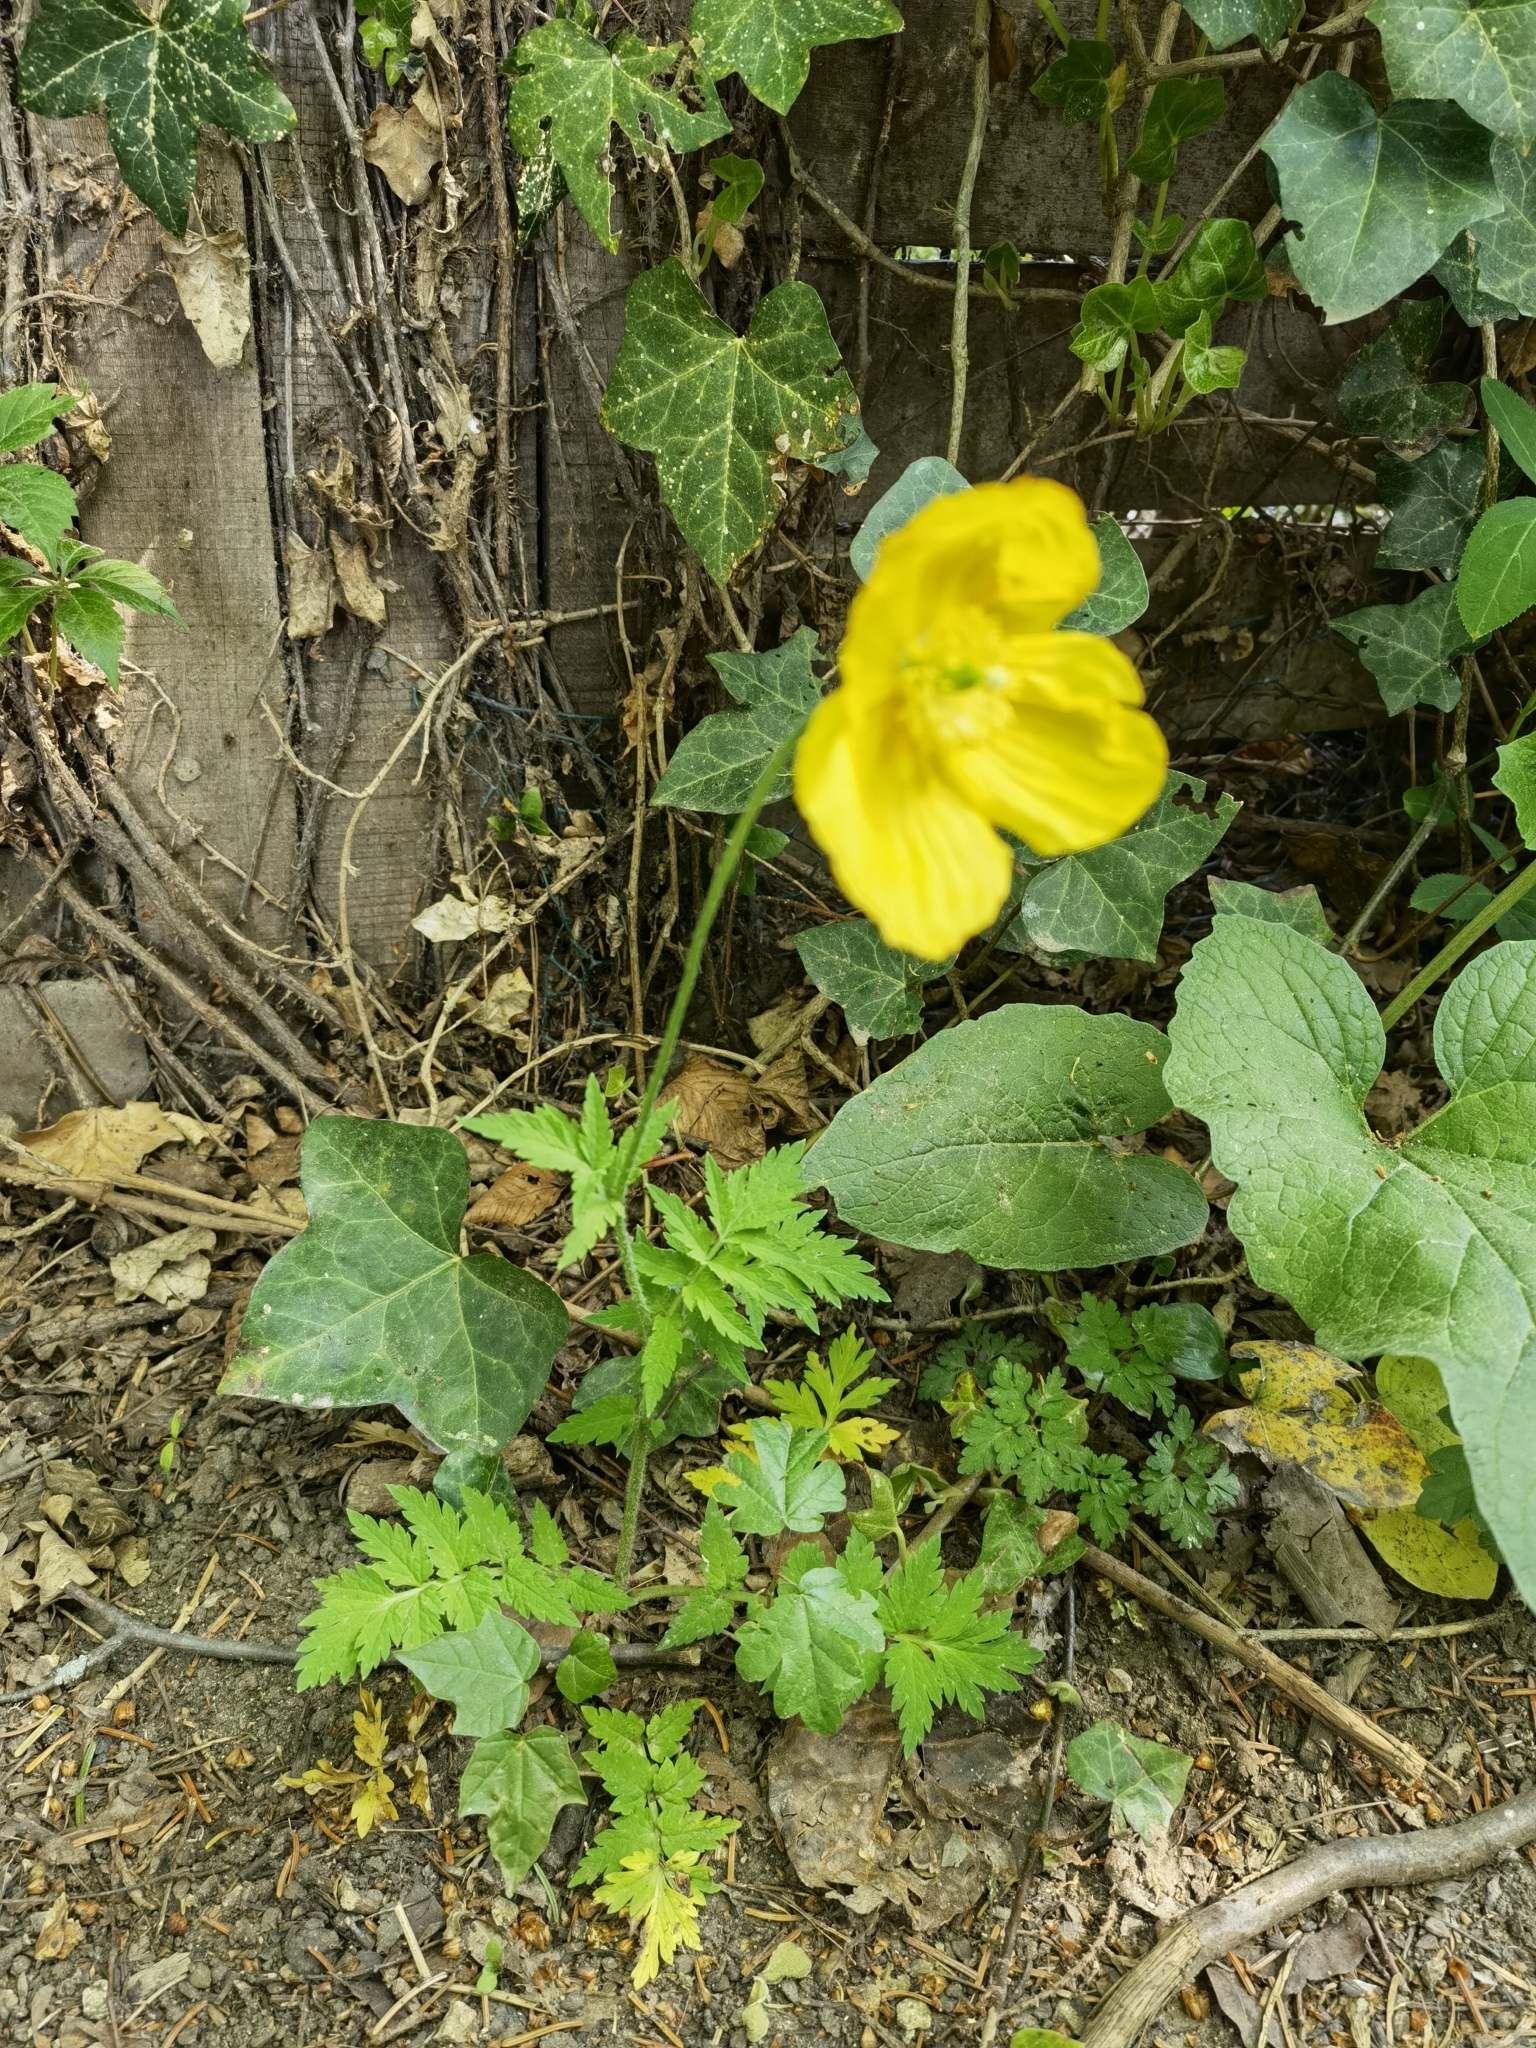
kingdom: Plantae
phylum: Tracheophyta
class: Magnoliopsida
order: Ranunculales
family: Papaveraceae
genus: Papaver
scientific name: Papaver cambricum
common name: Poppy
